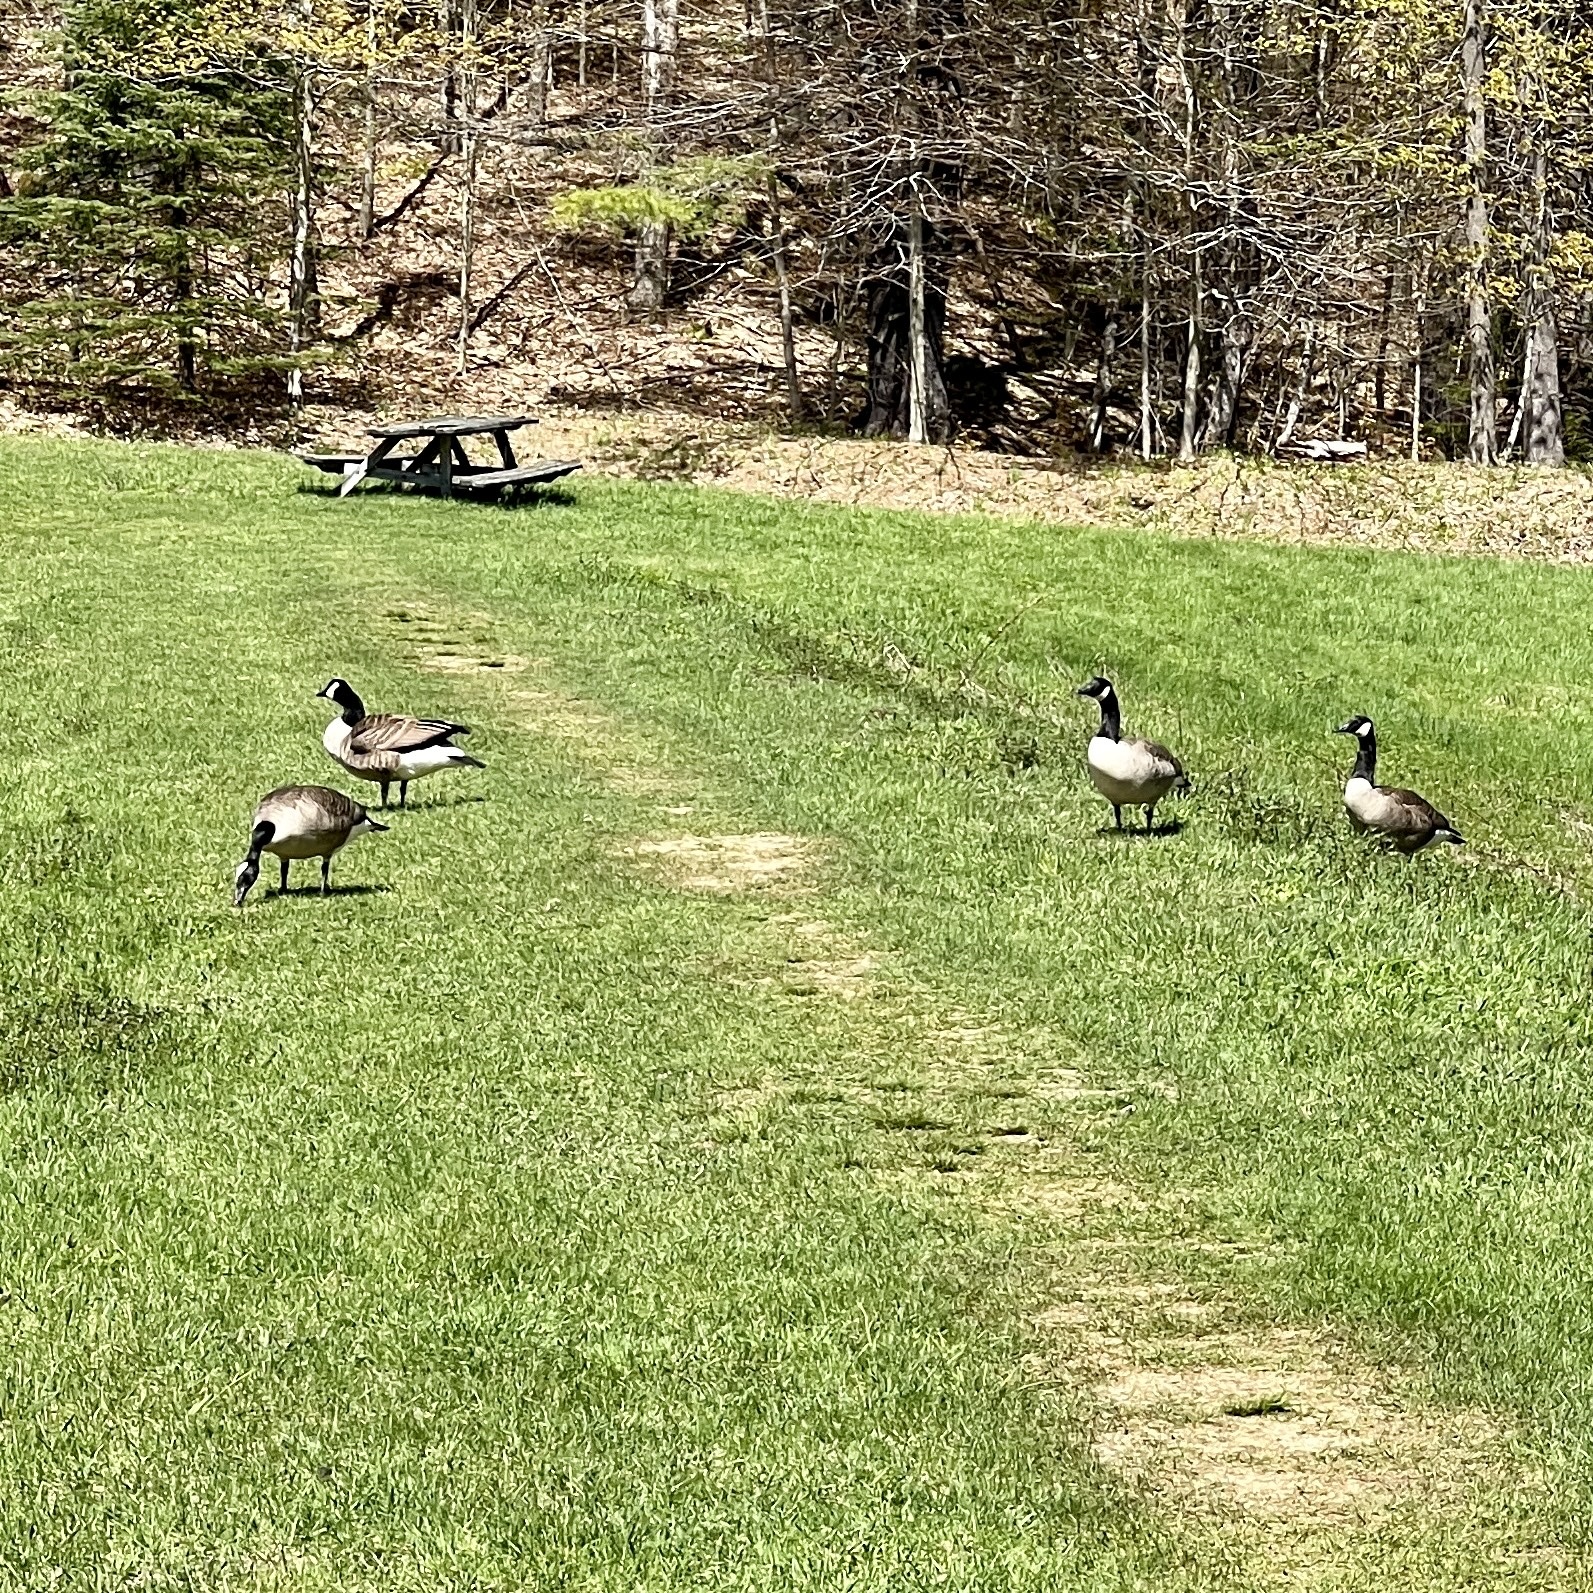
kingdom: Animalia
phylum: Chordata
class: Aves
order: Anseriformes
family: Anatidae
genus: Branta
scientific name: Branta canadensis
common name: Canada goose
